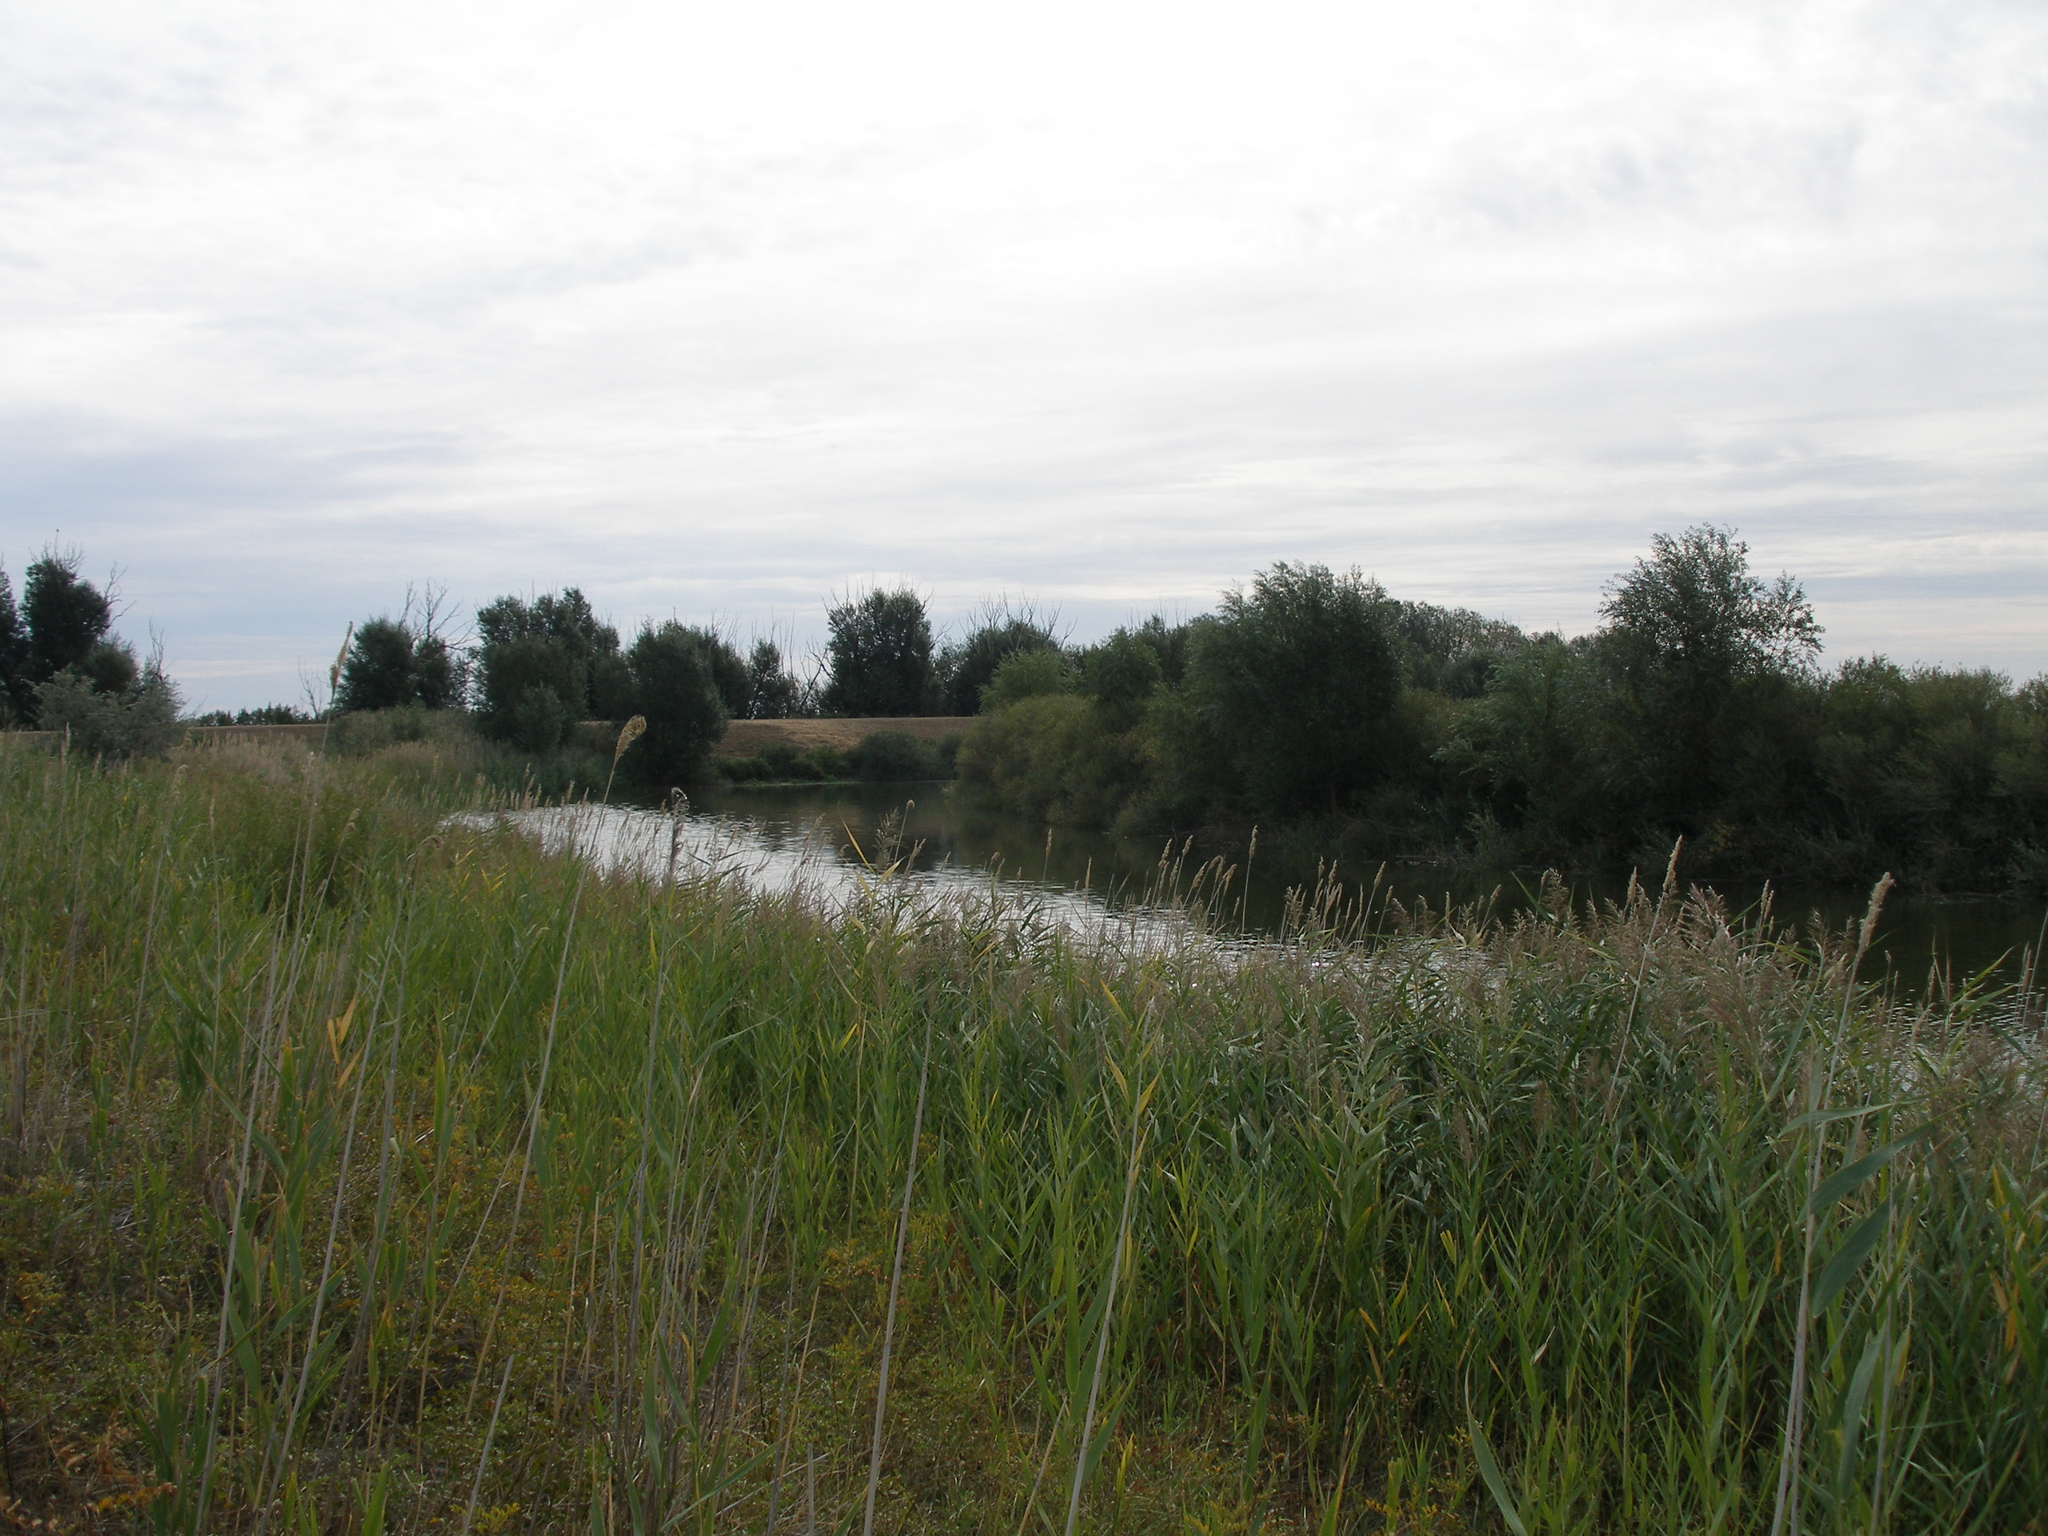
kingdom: Plantae
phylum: Tracheophyta
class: Liliopsida
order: Poales
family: Poaceae
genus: Phragmites
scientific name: Phragmites australis
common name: Common reed
